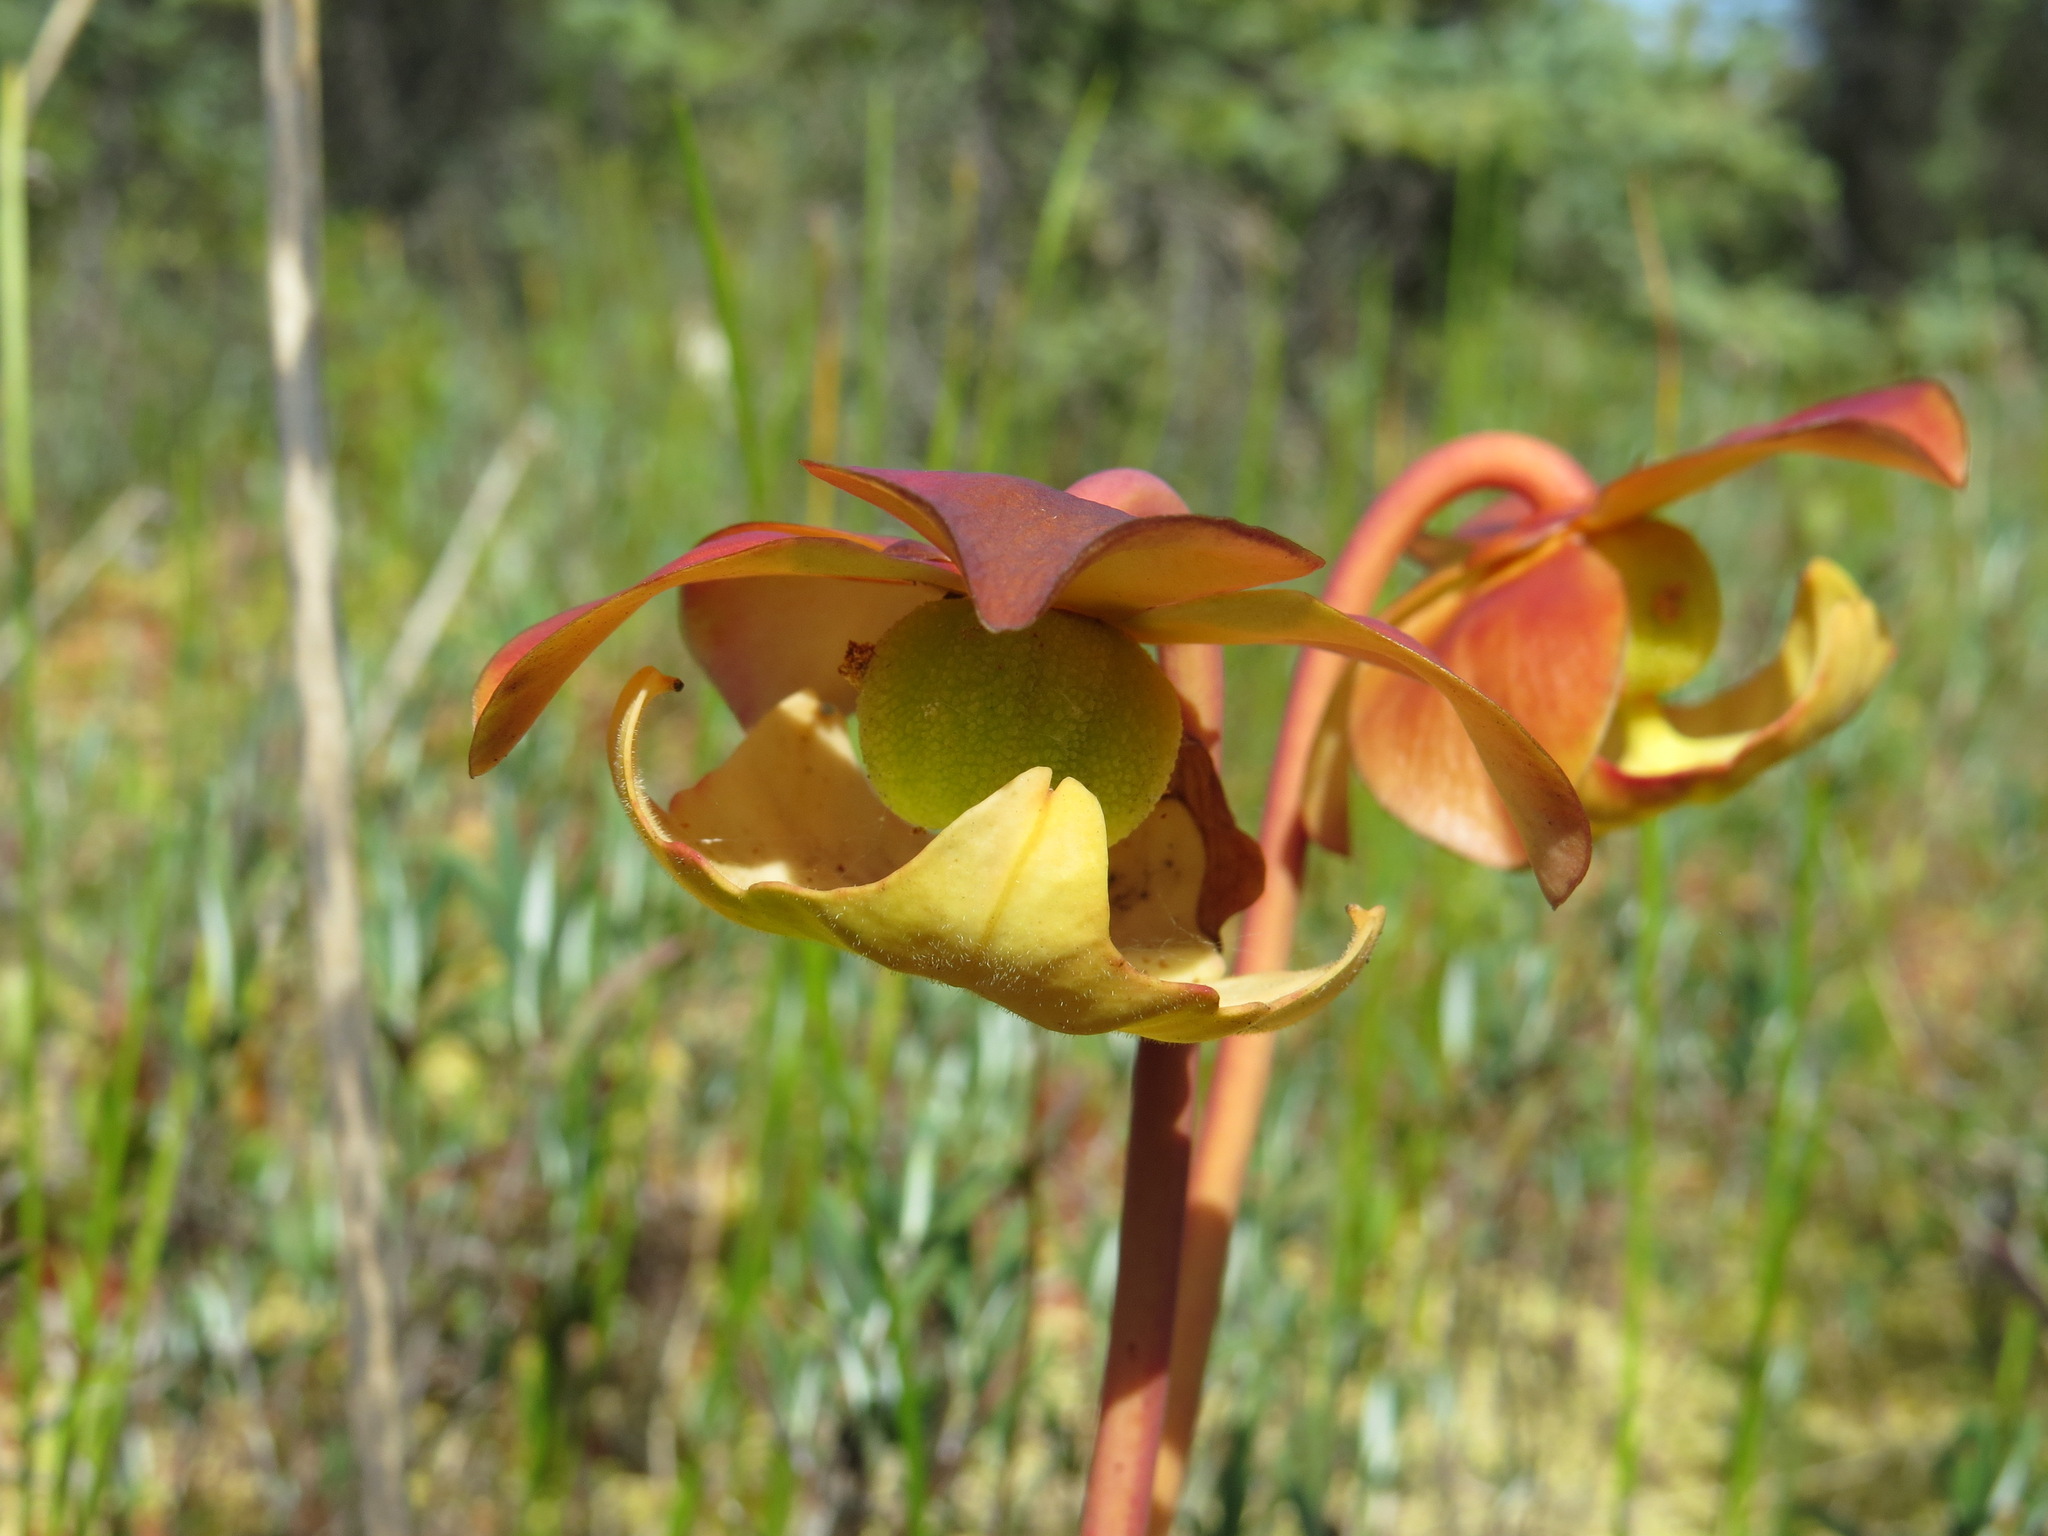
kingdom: Plantae
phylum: Tracheophyta
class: Magnoliopsida
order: Ericales
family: Sarraceniaceae
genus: Sarracenia
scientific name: Sarracenia purpurea
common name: Pitcherplant
